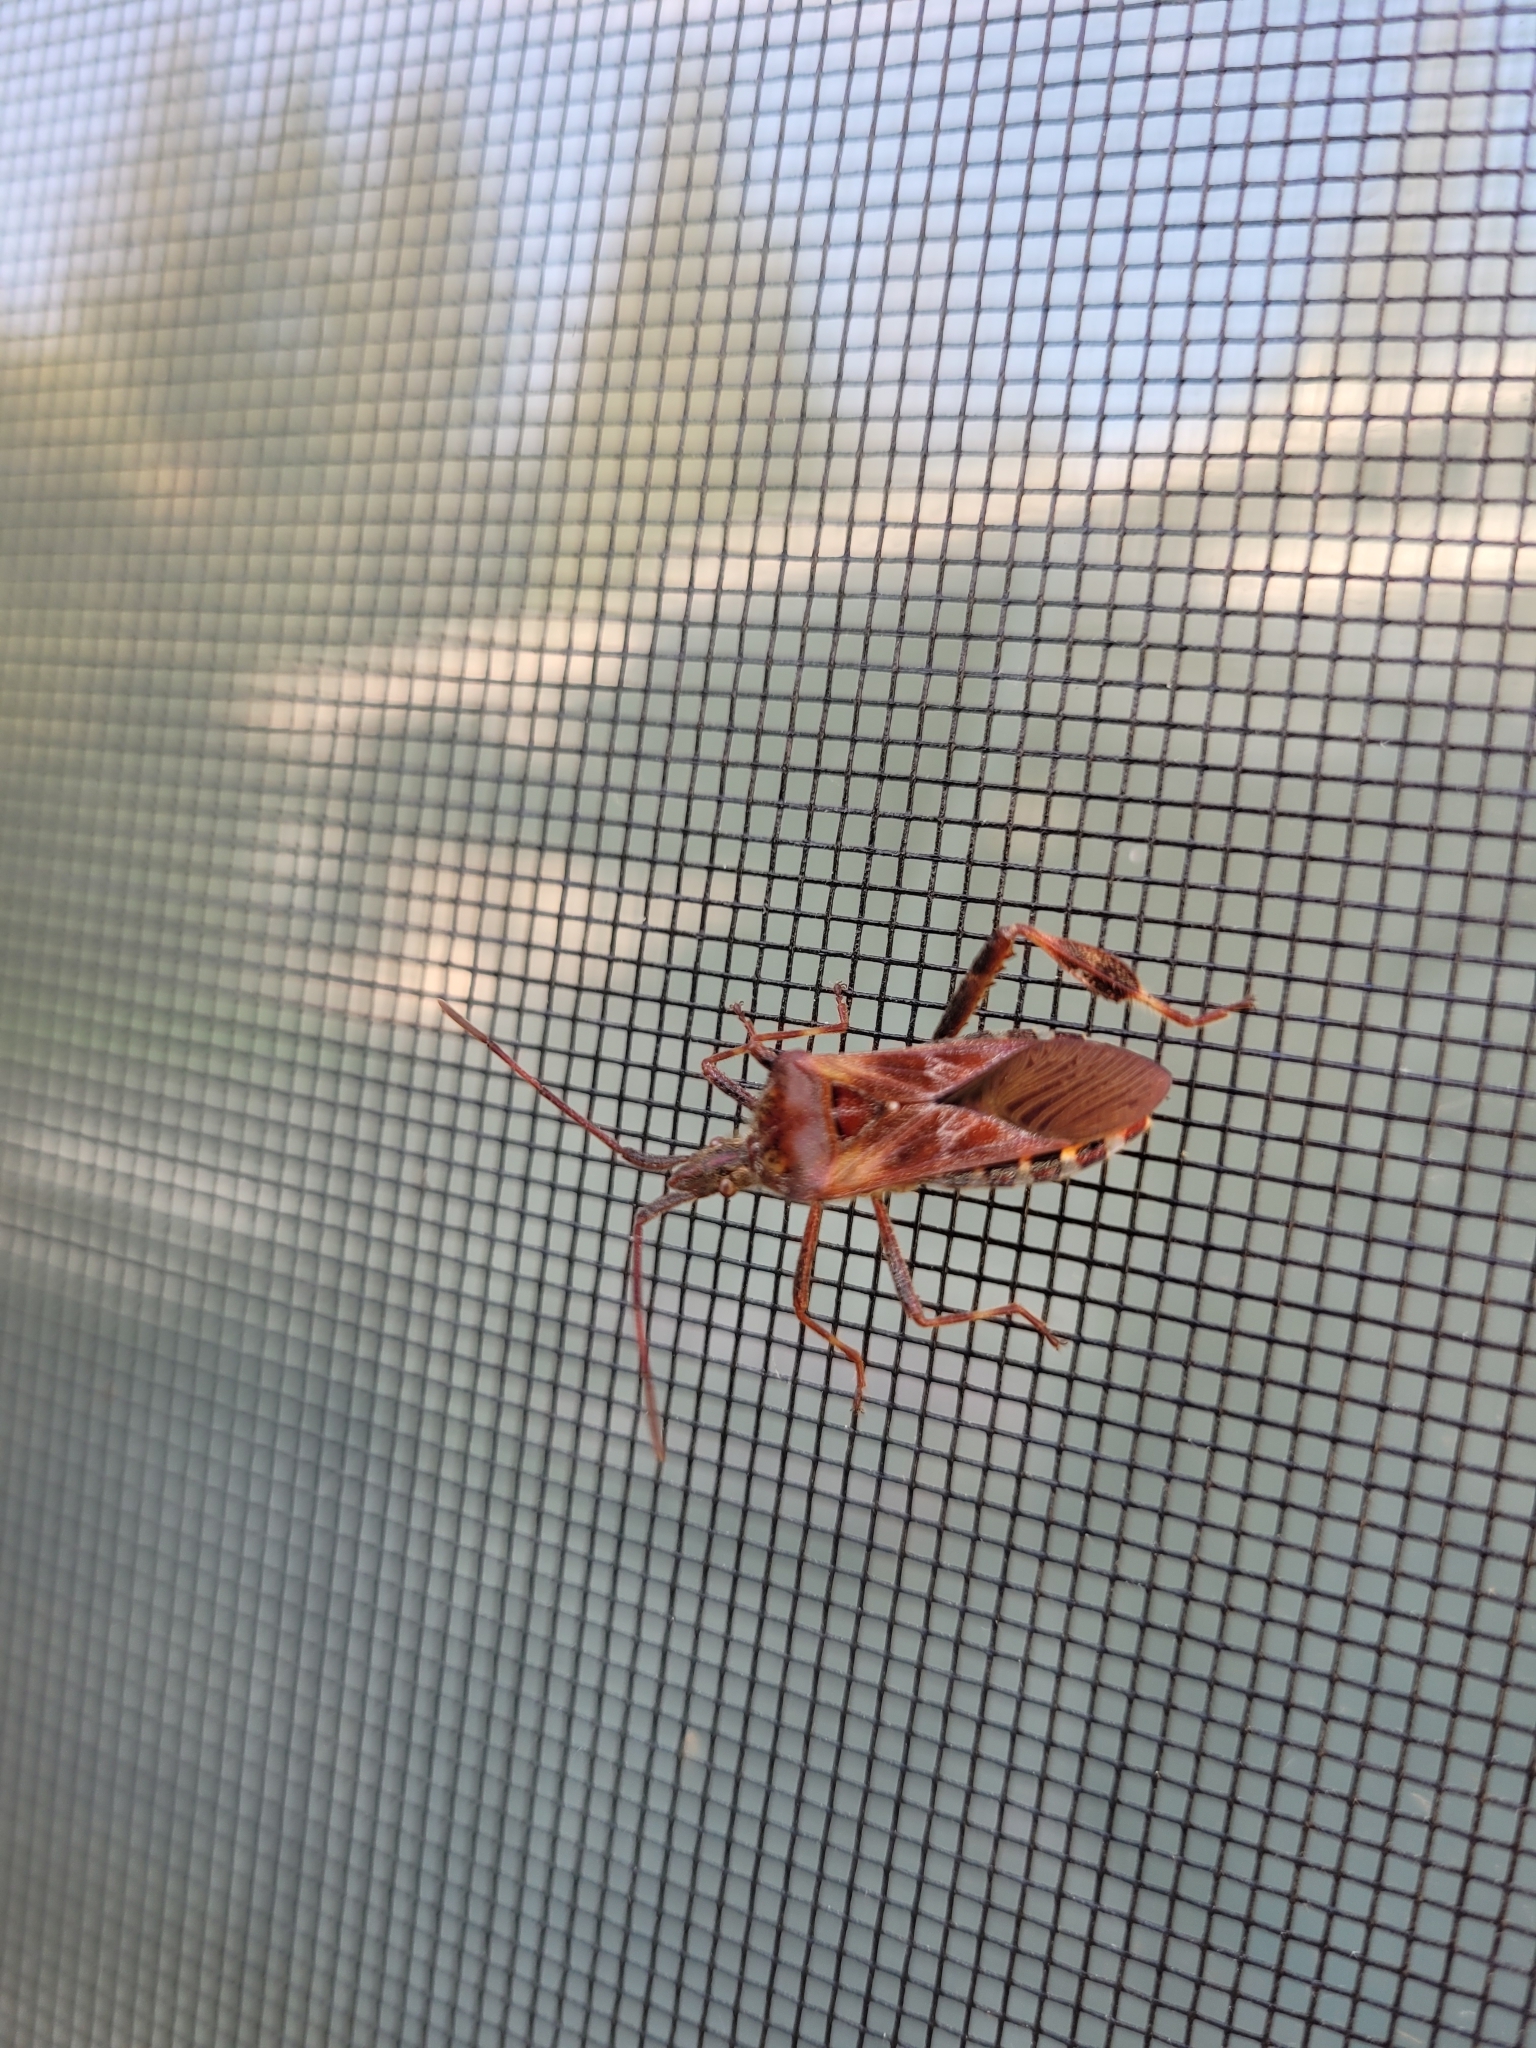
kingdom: Animalia
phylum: Arthropoda
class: Insecta
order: Hemiptera
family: Coreidae
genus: Leptoglossus
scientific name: Leptoglossus occidentalis
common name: Western conifer-seed bug
